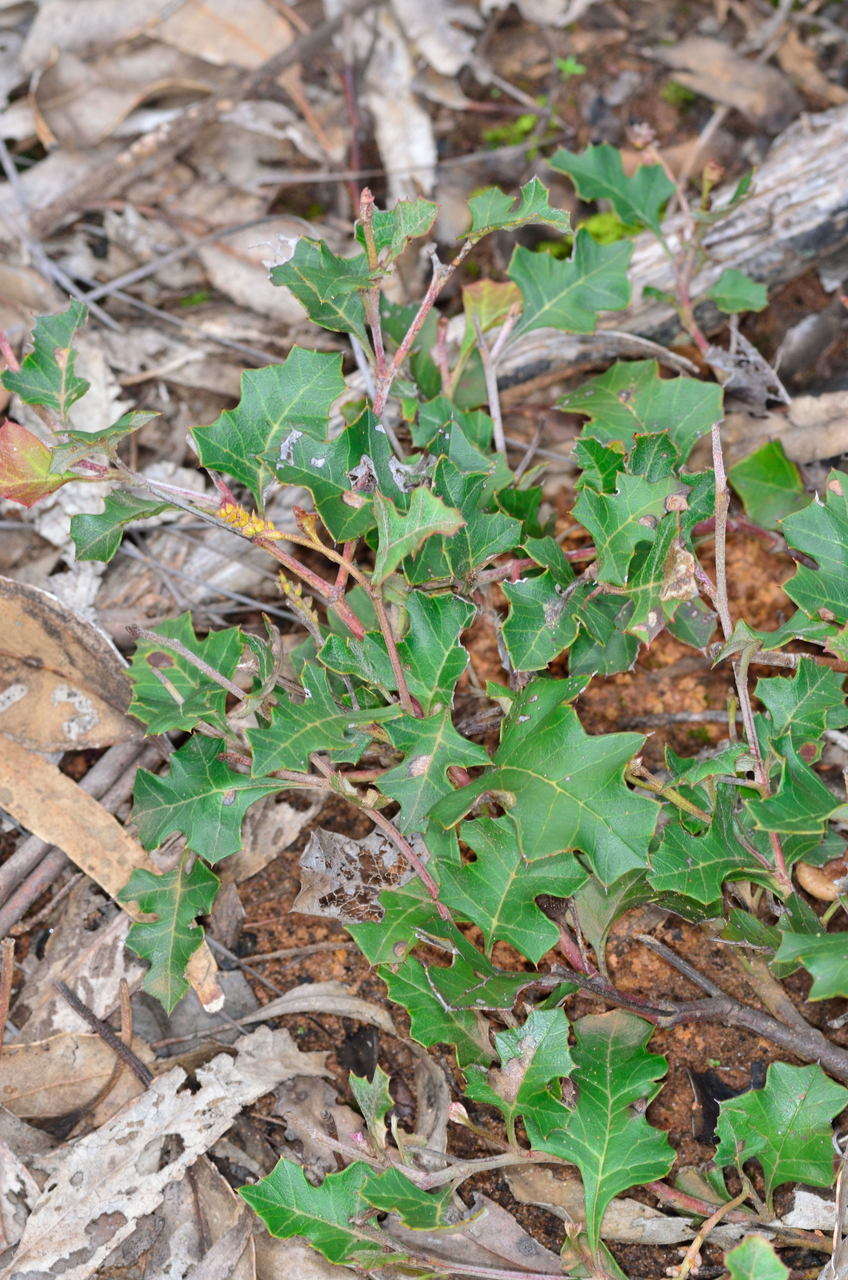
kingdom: Plantae
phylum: Tracheophyta
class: Magnoliopsida
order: Proteales
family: Proteaceae
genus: Grevillea
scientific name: Grevillea steiglitziana
